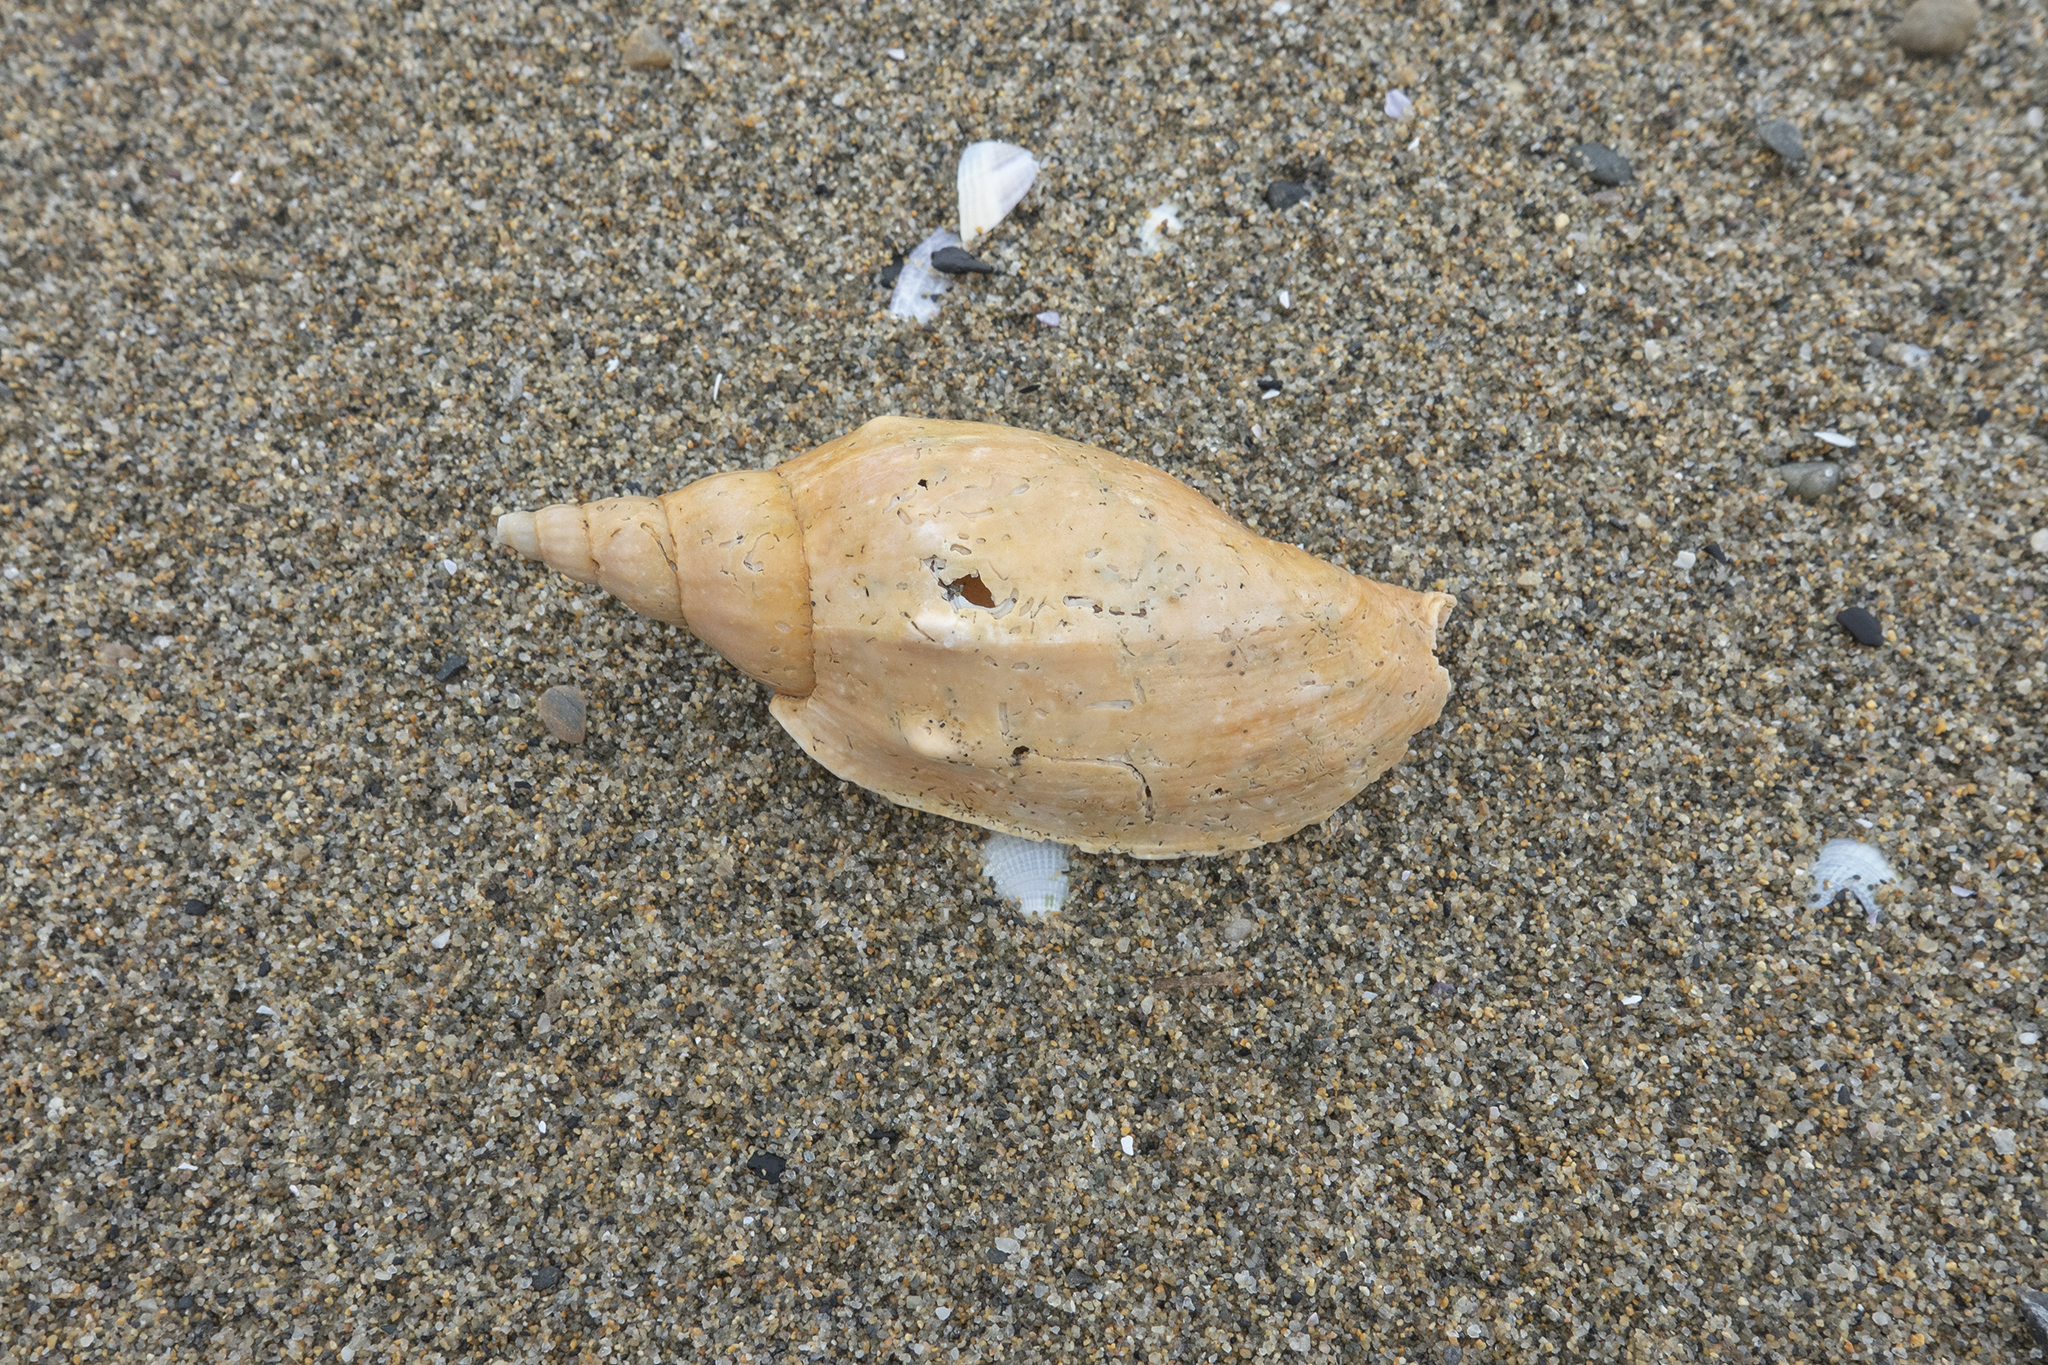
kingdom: Animalia
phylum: Mollusca
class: Gastropoda
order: Neogastropoda
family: Volutidae
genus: Alcithoe
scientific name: Alcithoe arabica
